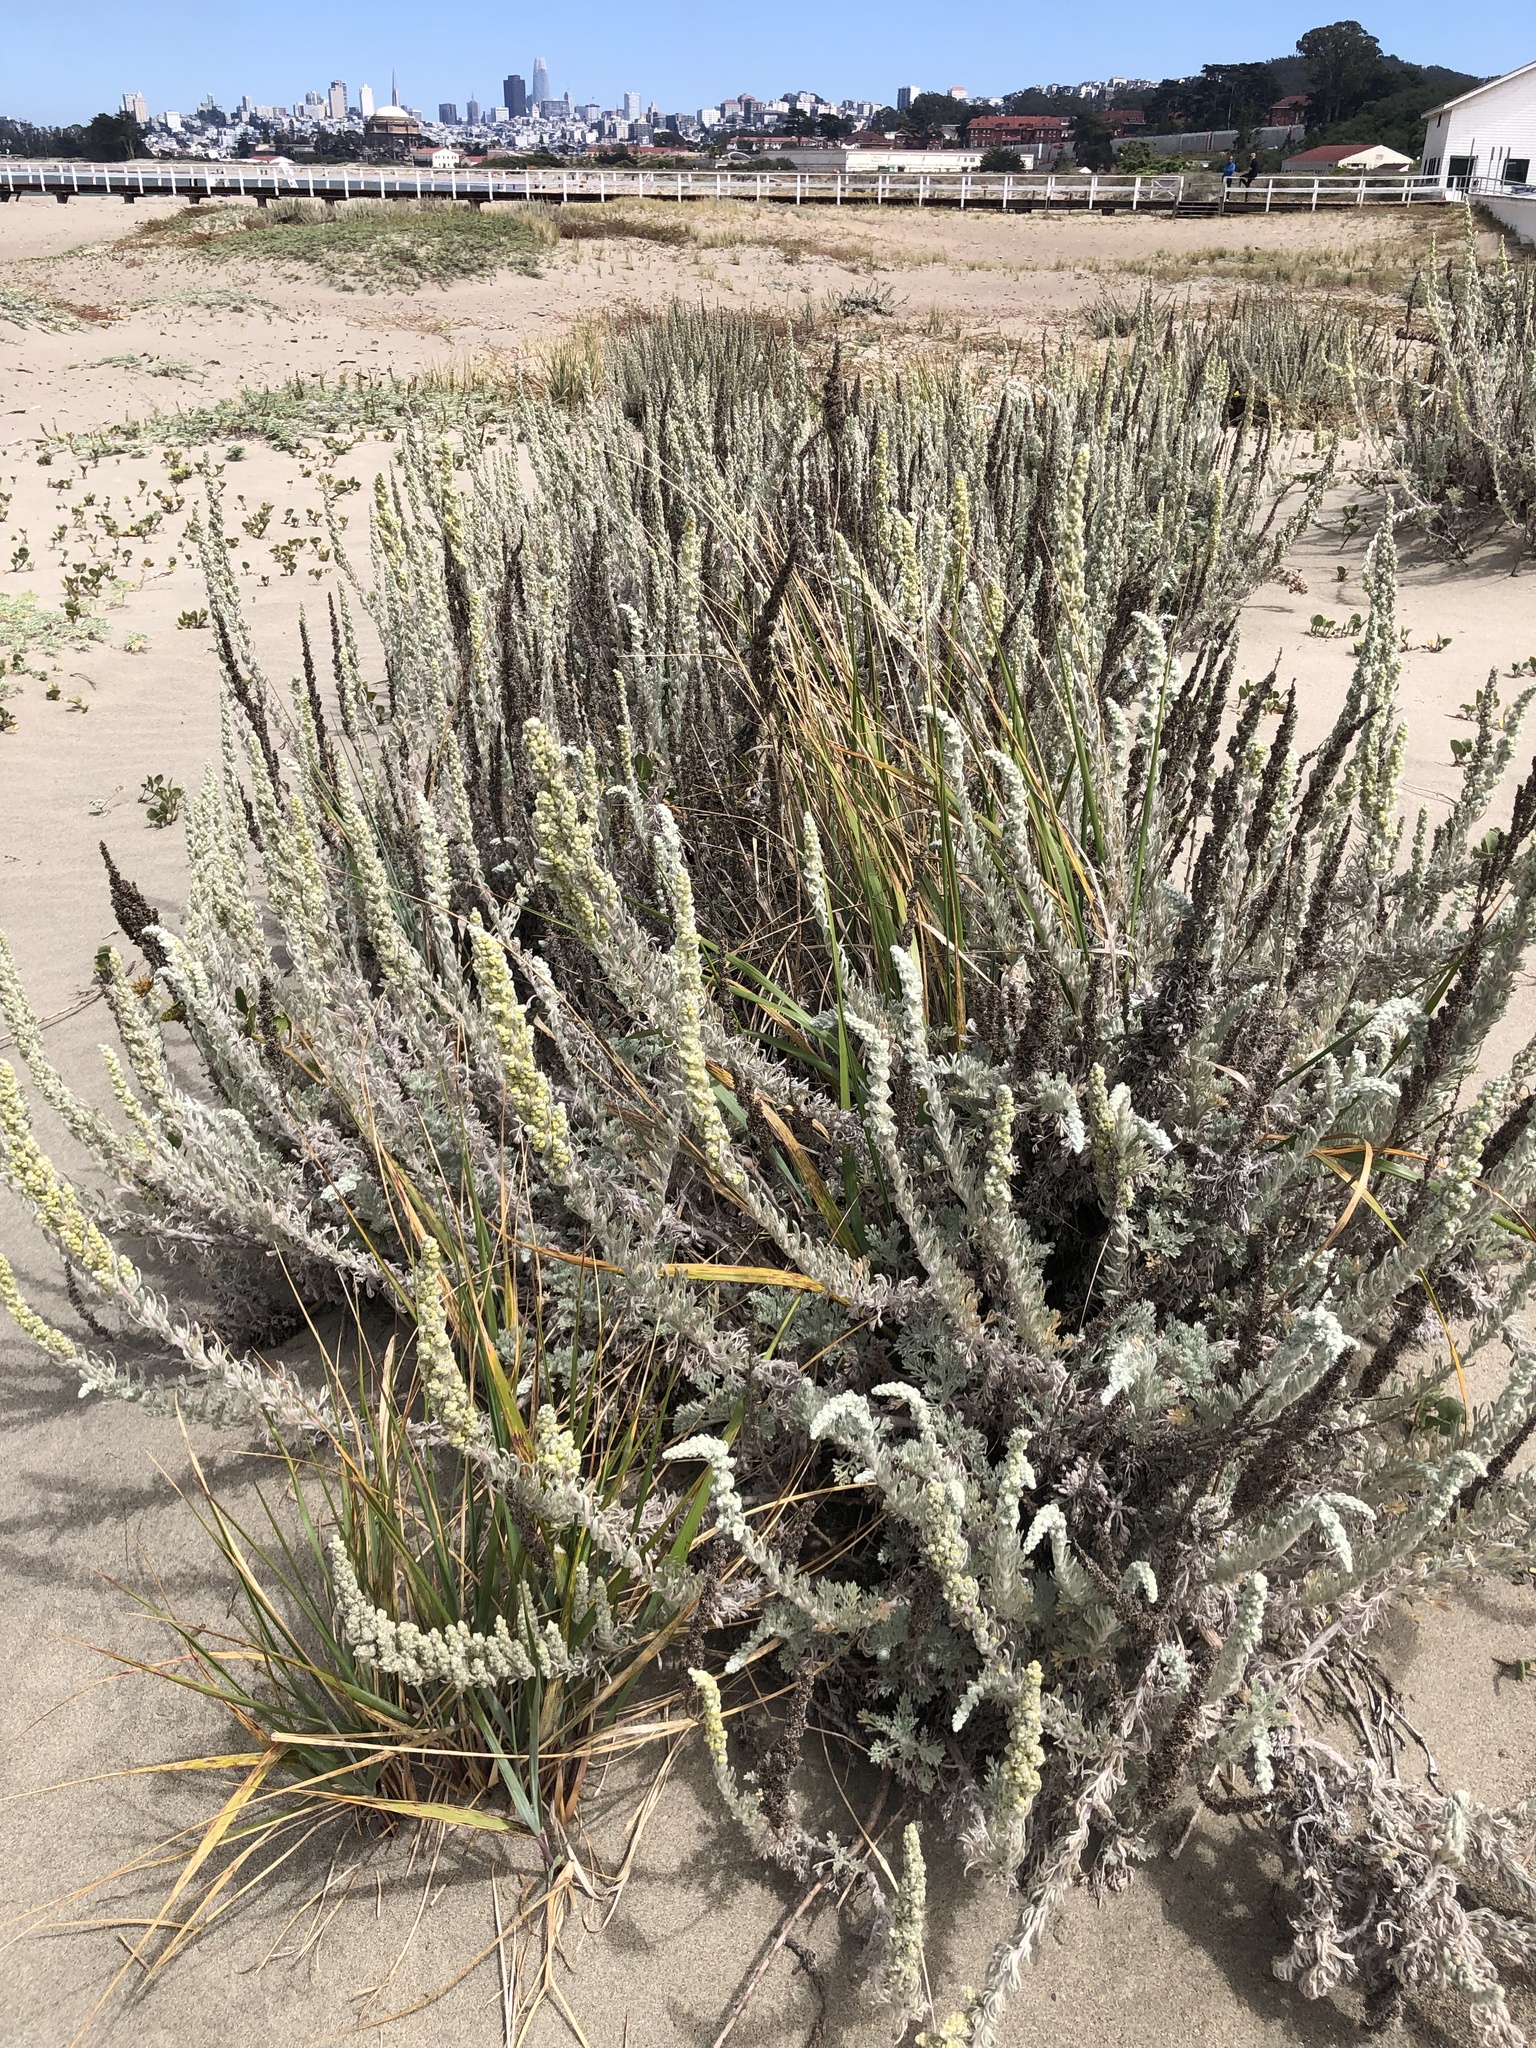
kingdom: Plantae
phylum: Tracheophyta
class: Magnoliopsida
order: Asterales
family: Asteraceae
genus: Artemisia
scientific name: Artemisia pycnocephala
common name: Coastal sagewort
